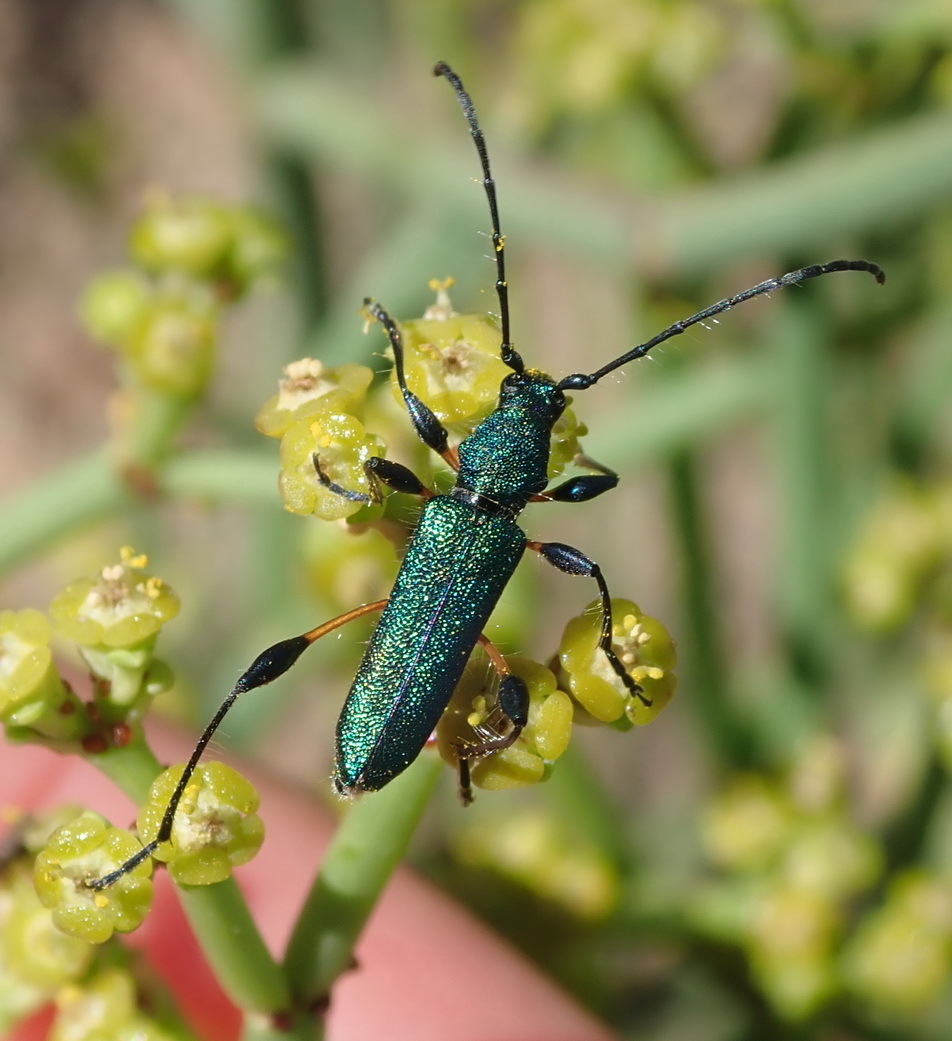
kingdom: Animalia
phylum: Arthropoda
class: Insecta
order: Coleoptera
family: Cerambycidae
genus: Clavomela
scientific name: Clavomela ciliata
